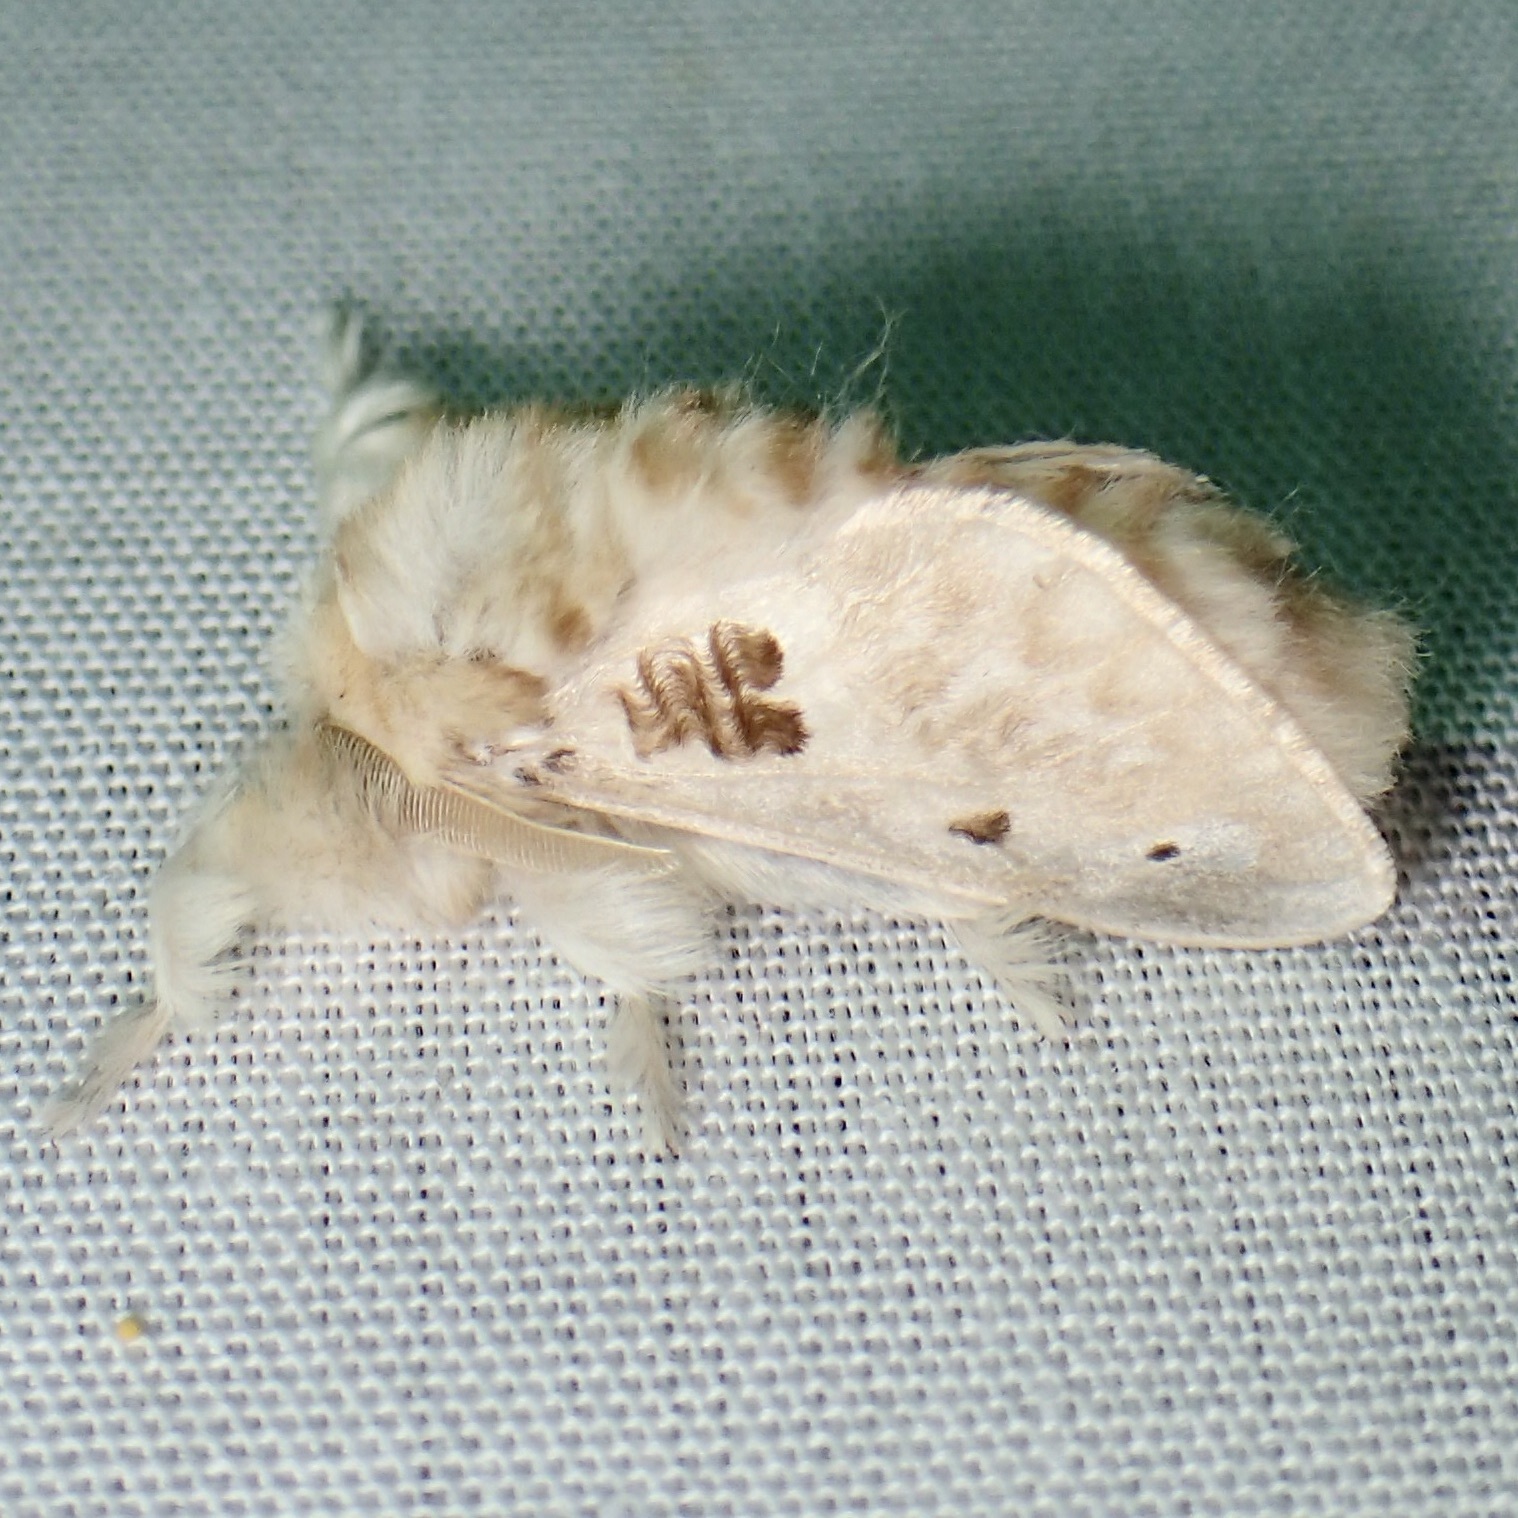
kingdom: Animalia
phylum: Arthropoda
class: Insecta
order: Lepidoptera
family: Megalopygidae
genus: Megalopyge
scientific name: Megalopyge lapena
